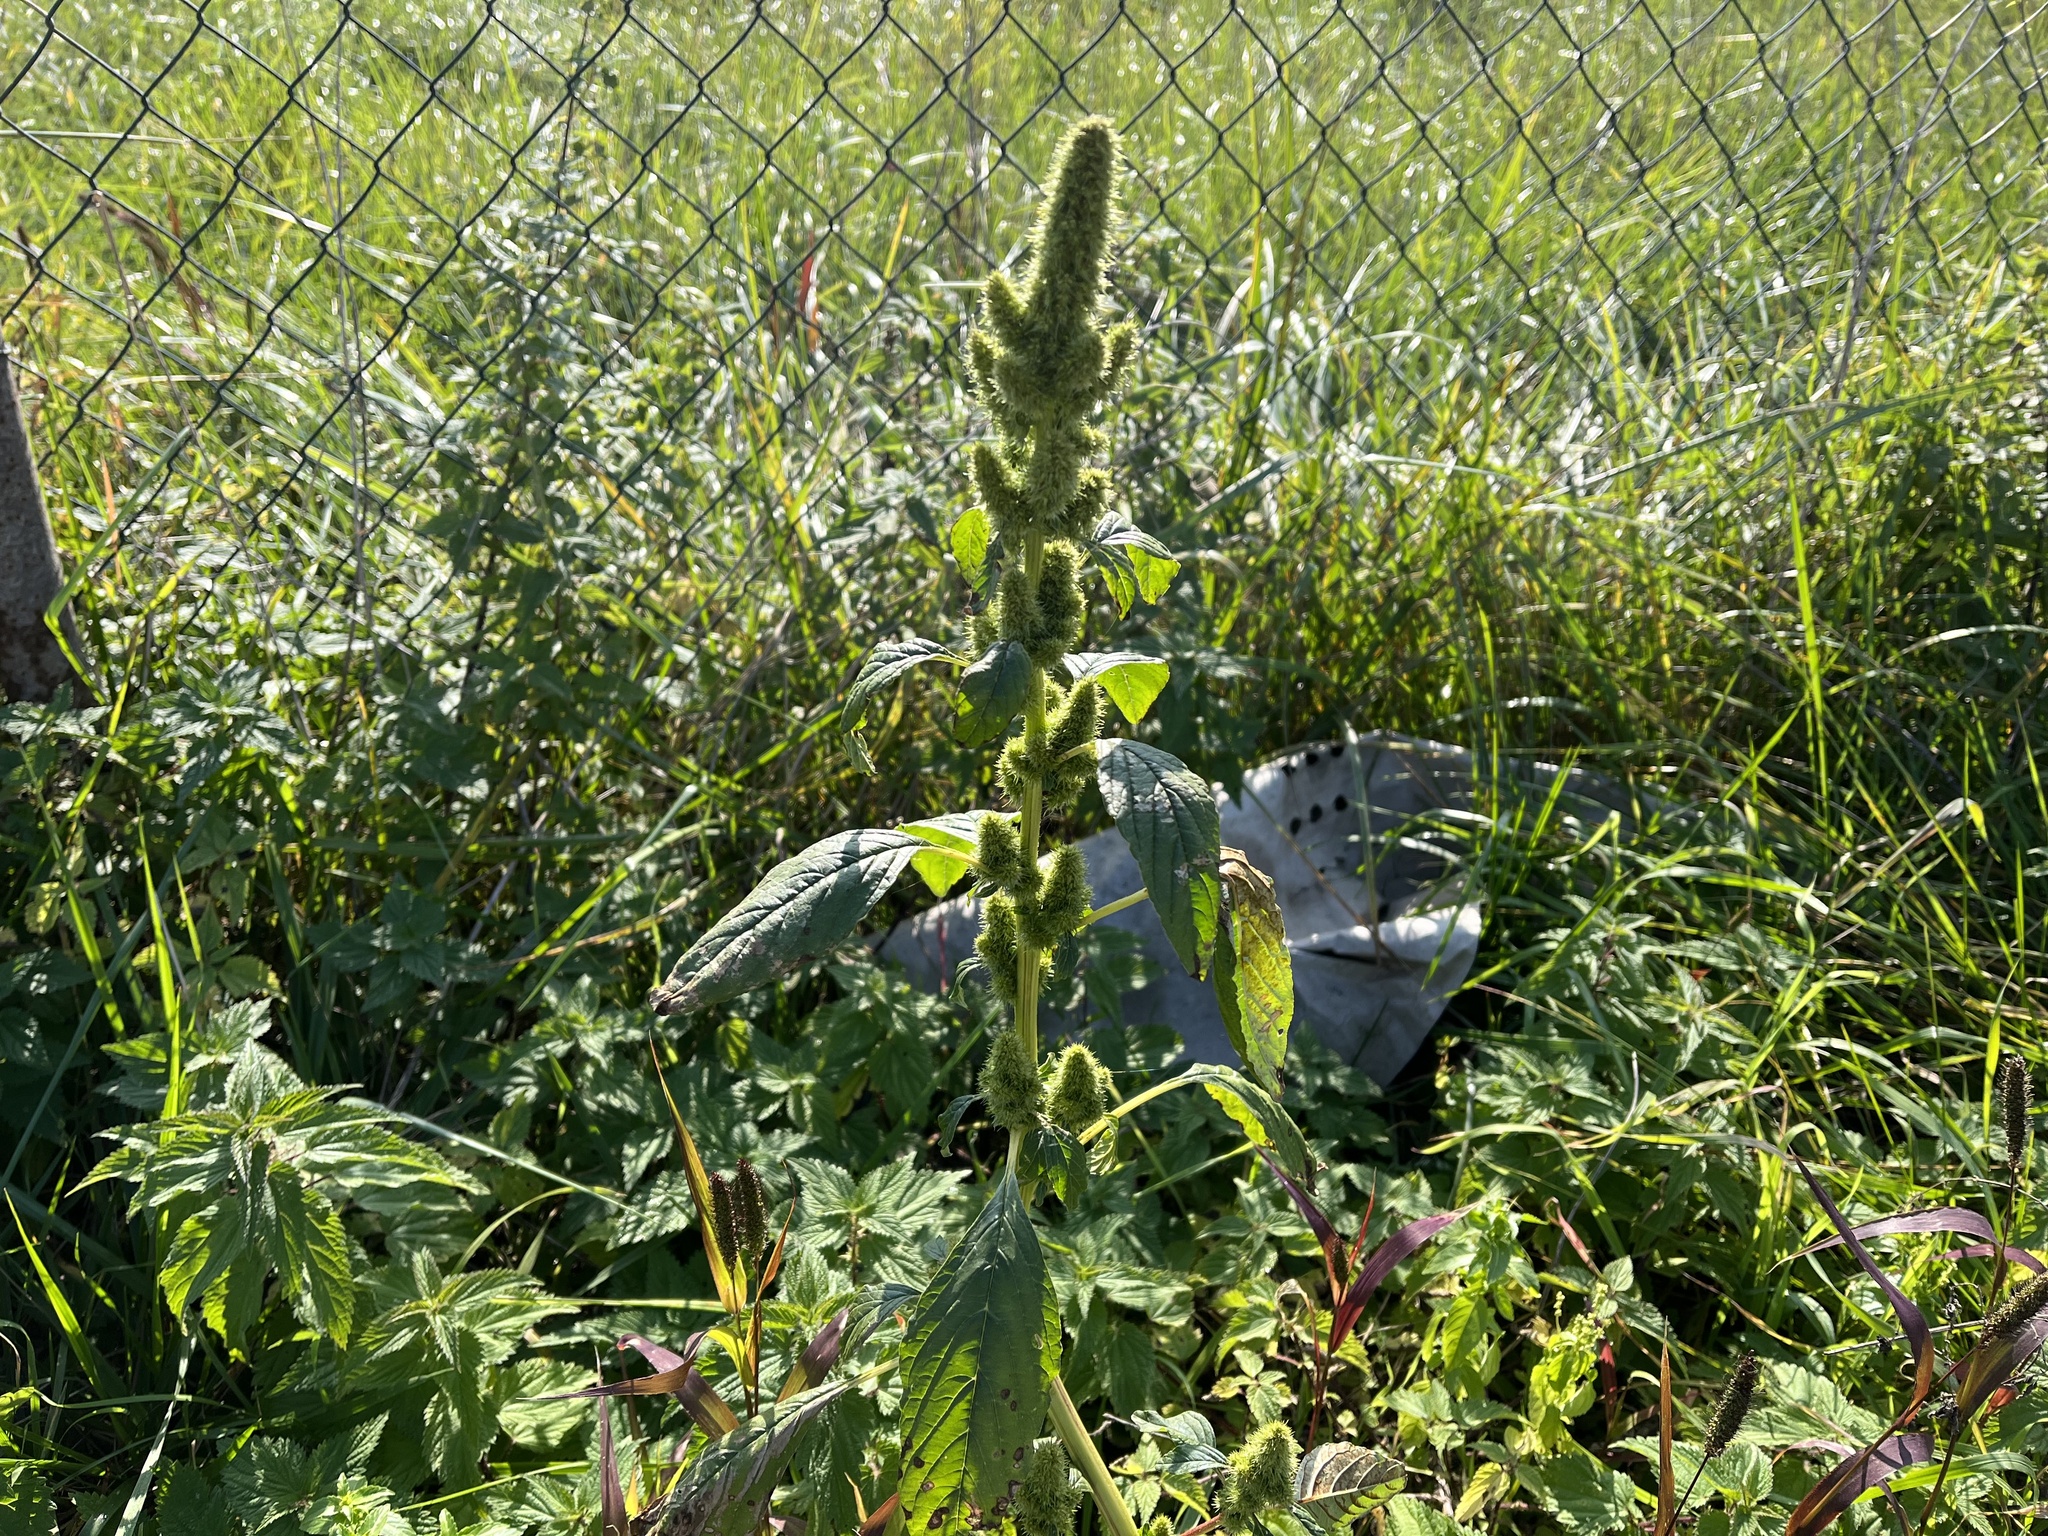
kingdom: Plantae
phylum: Tracheophyta
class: Magnoliopsida
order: Caryophyllales
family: Amaranthaceae
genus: Amaranthus
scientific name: Amaranthus retroflexus
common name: Redroot amaranth
